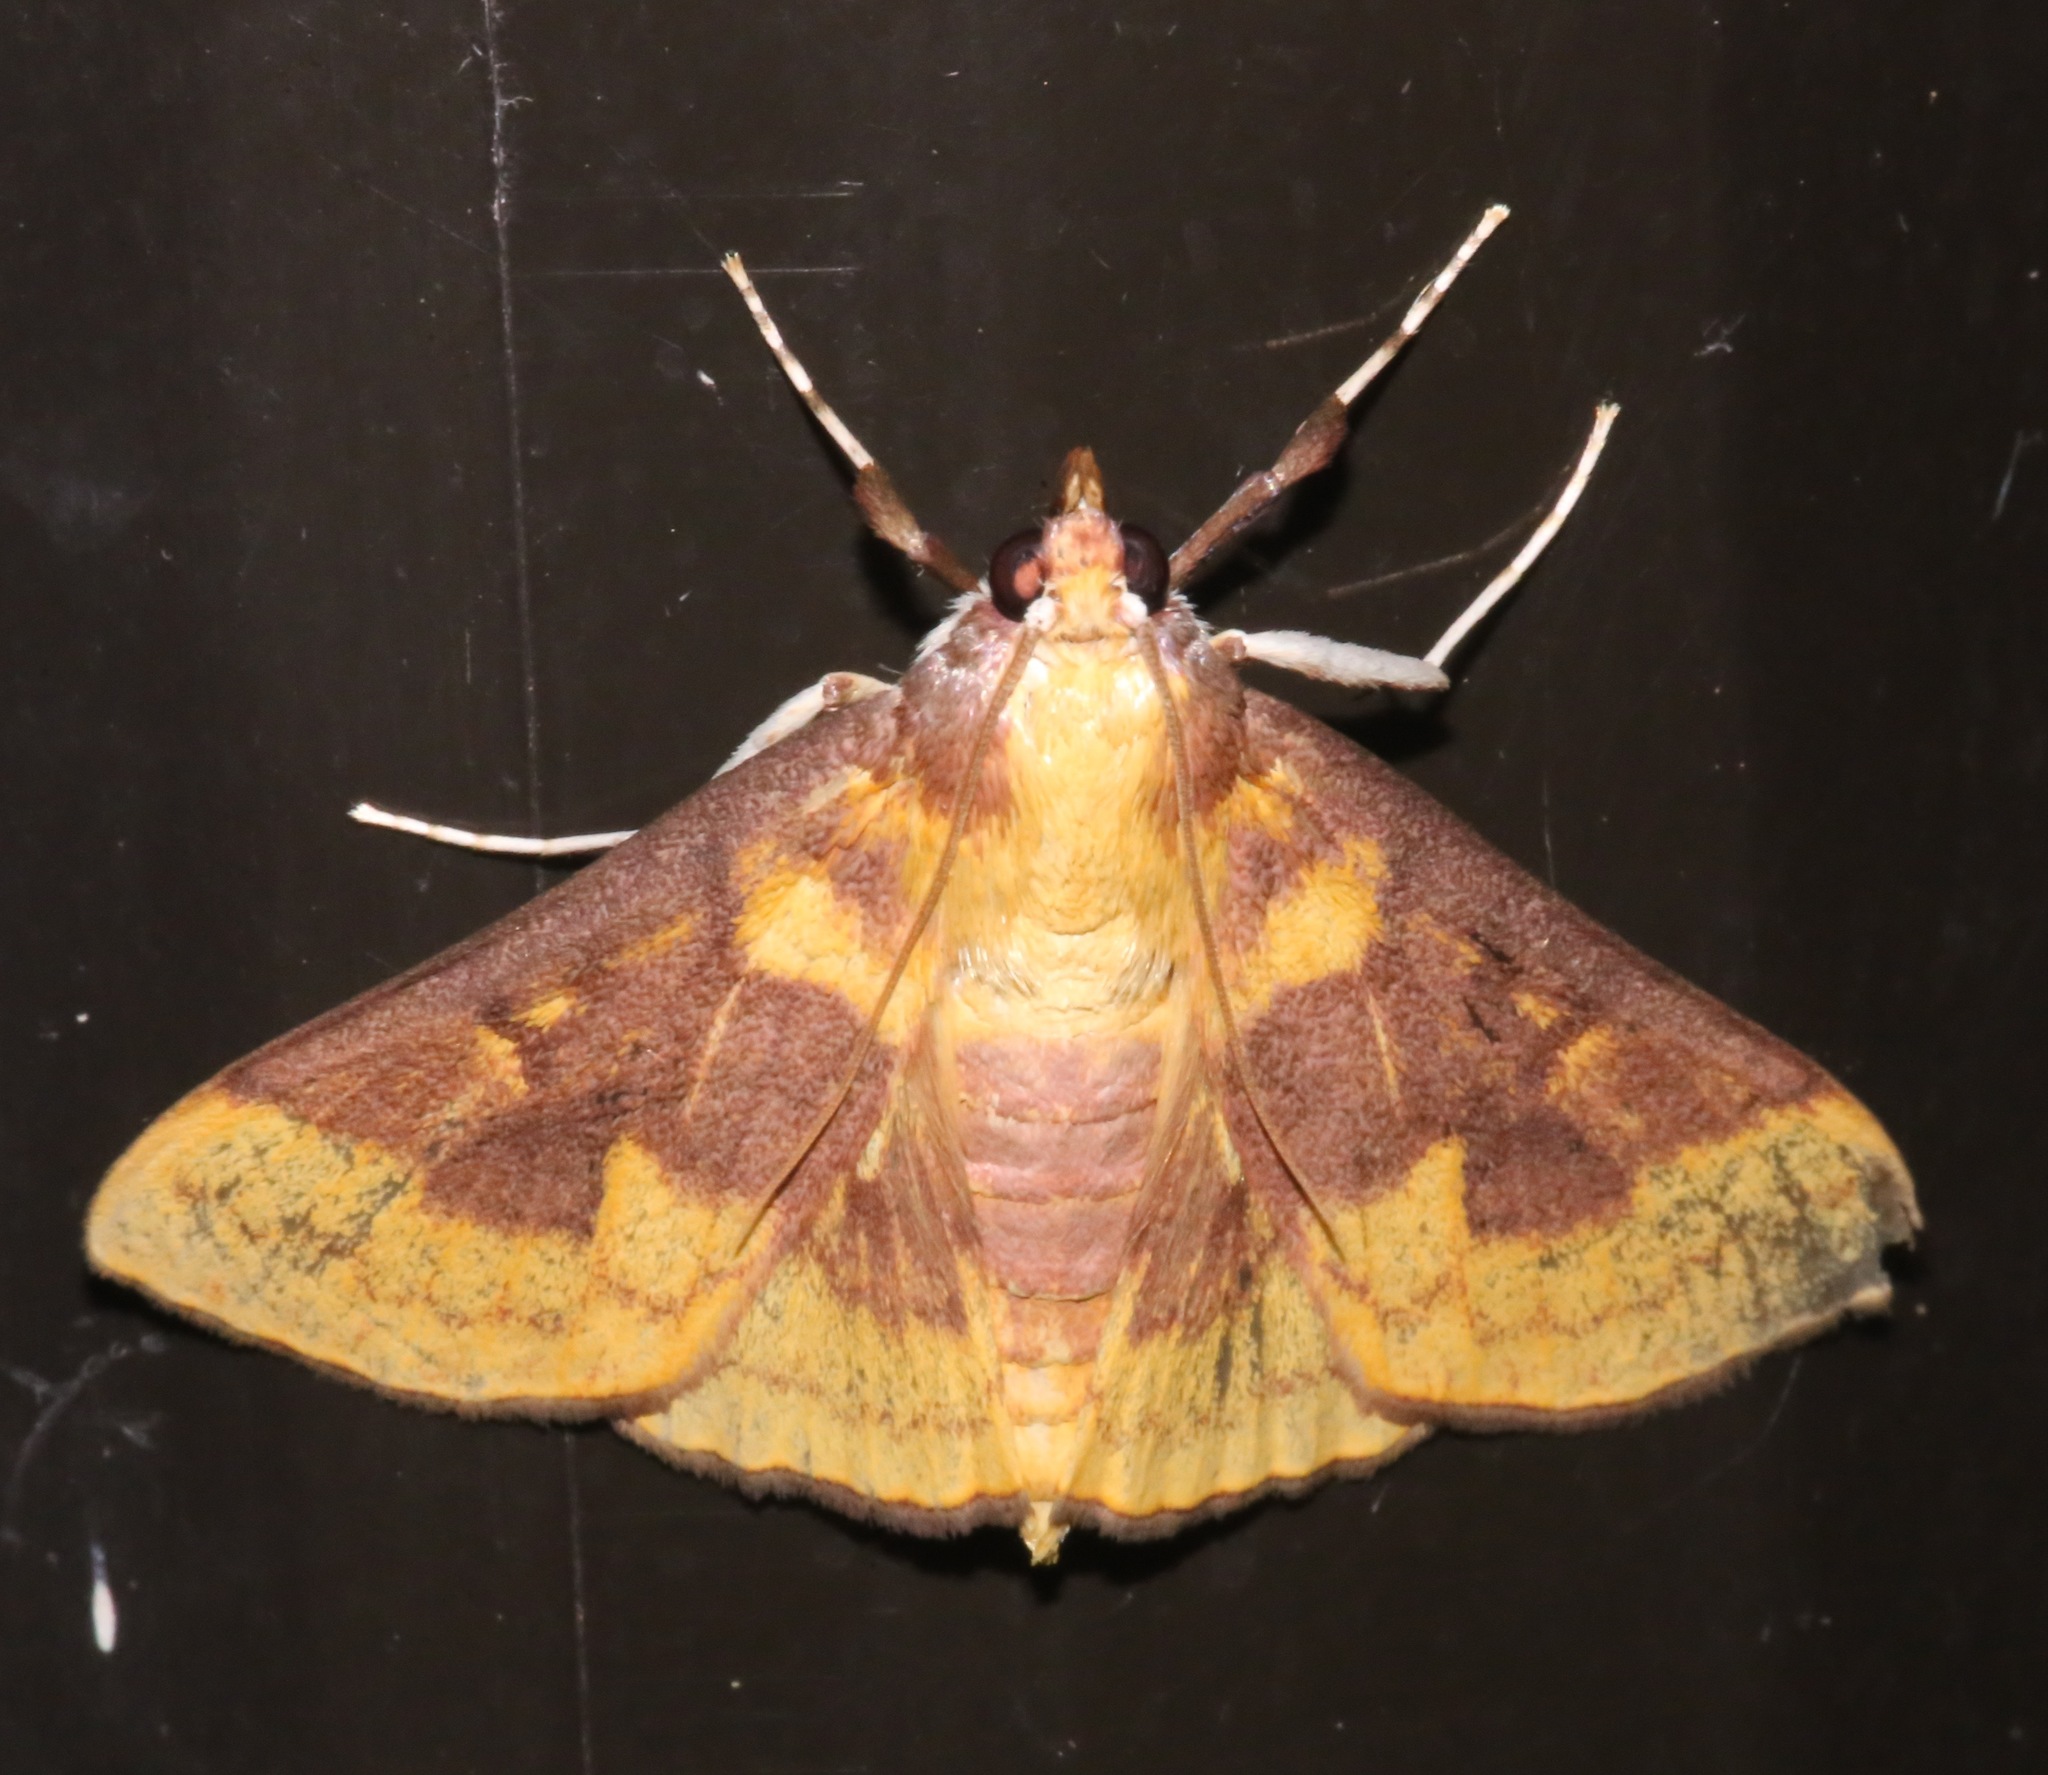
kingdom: Animalia
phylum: Arthropoda
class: Insecta
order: Lepidoptera
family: Crambidae
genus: Polygrammodes
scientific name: Polygrammodes ponderalis
